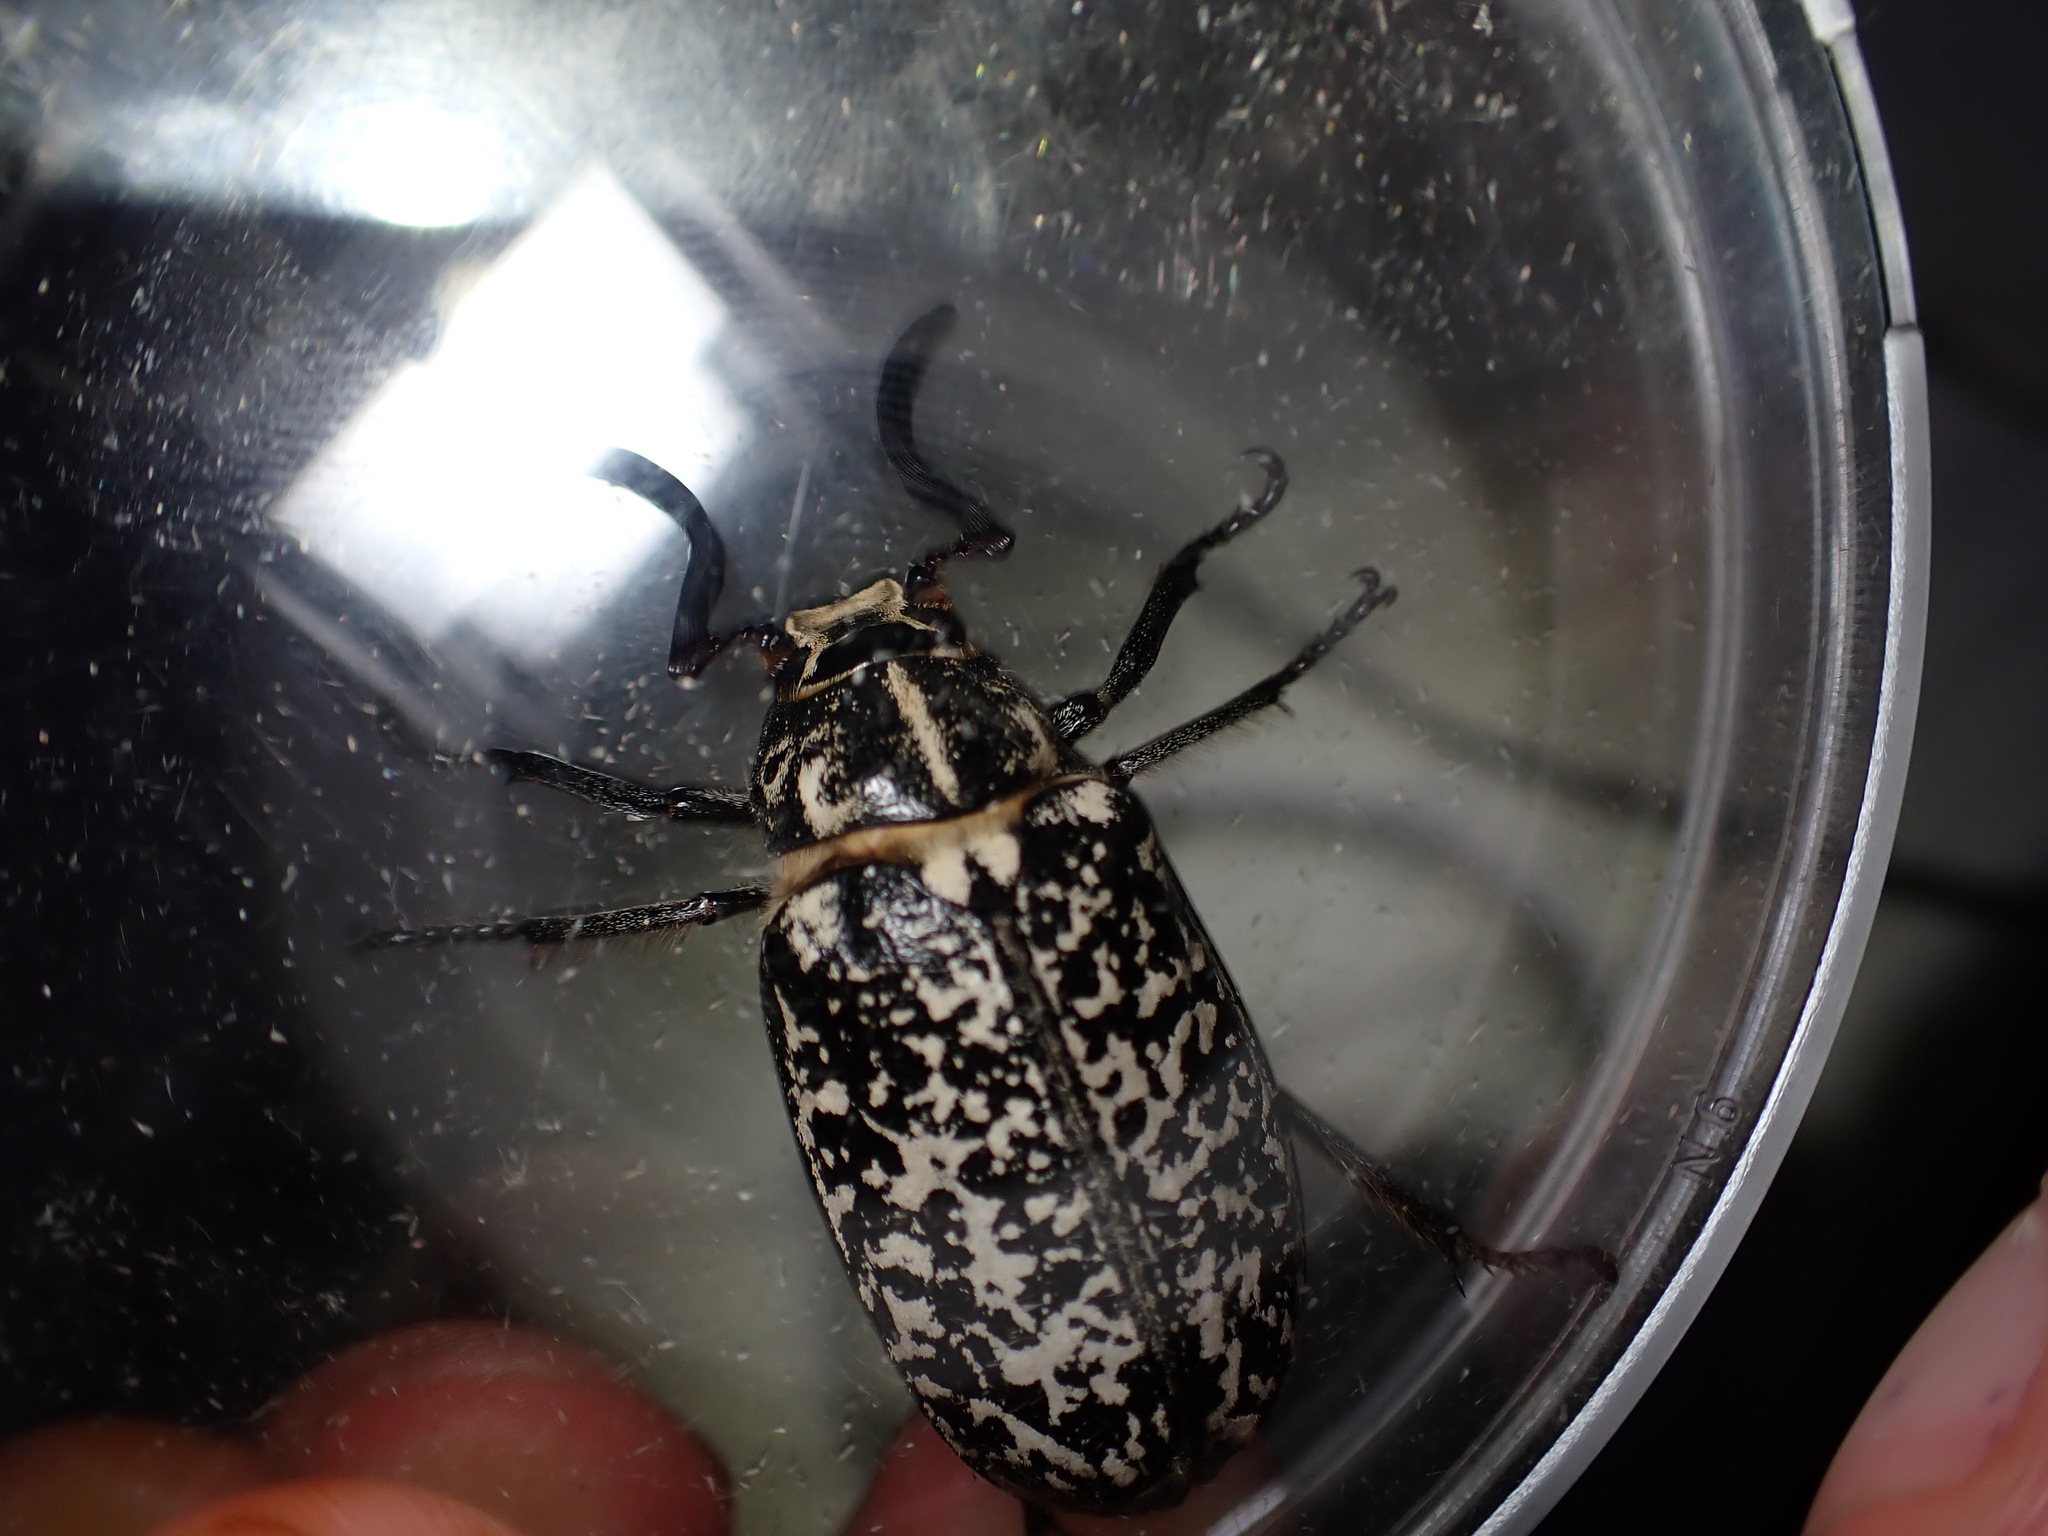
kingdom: Animalia
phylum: Arthropoda
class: Insecta
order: Coleoptera
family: Scarabaeidae
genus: Polyphylla
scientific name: Polyphylla fullo
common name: Pine chafer
